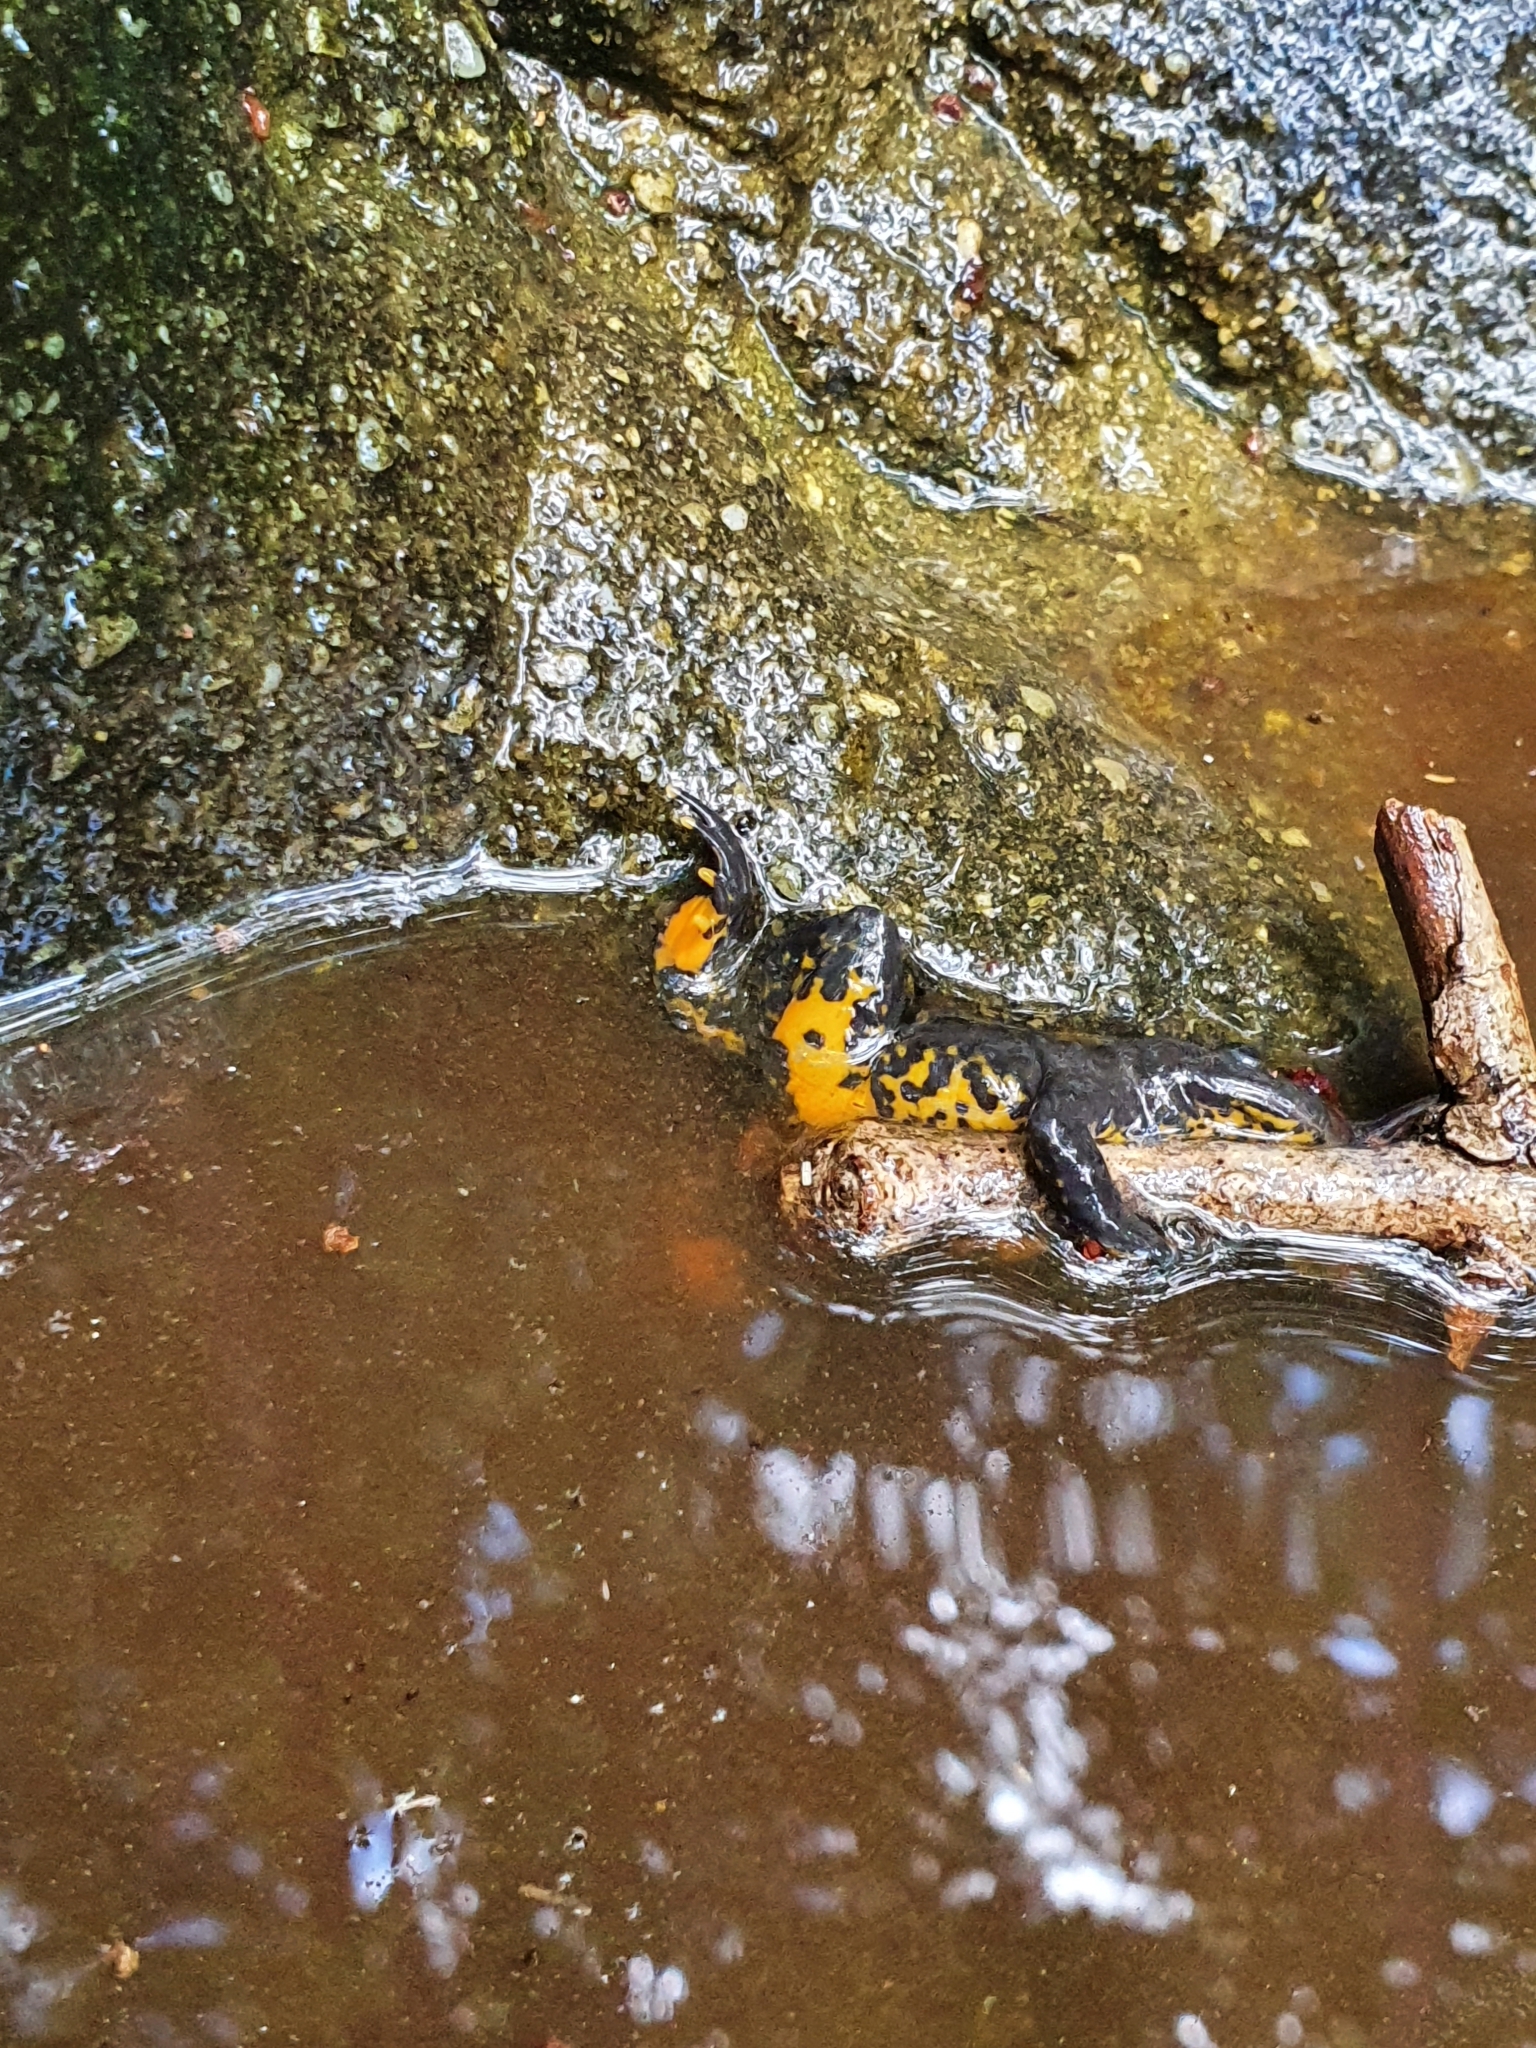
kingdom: Animalia
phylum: Chordata
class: Amphibia
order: Anura
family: Bombinatoridae
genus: Bombina
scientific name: Bombina variegata
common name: Yellow-bellied toad
